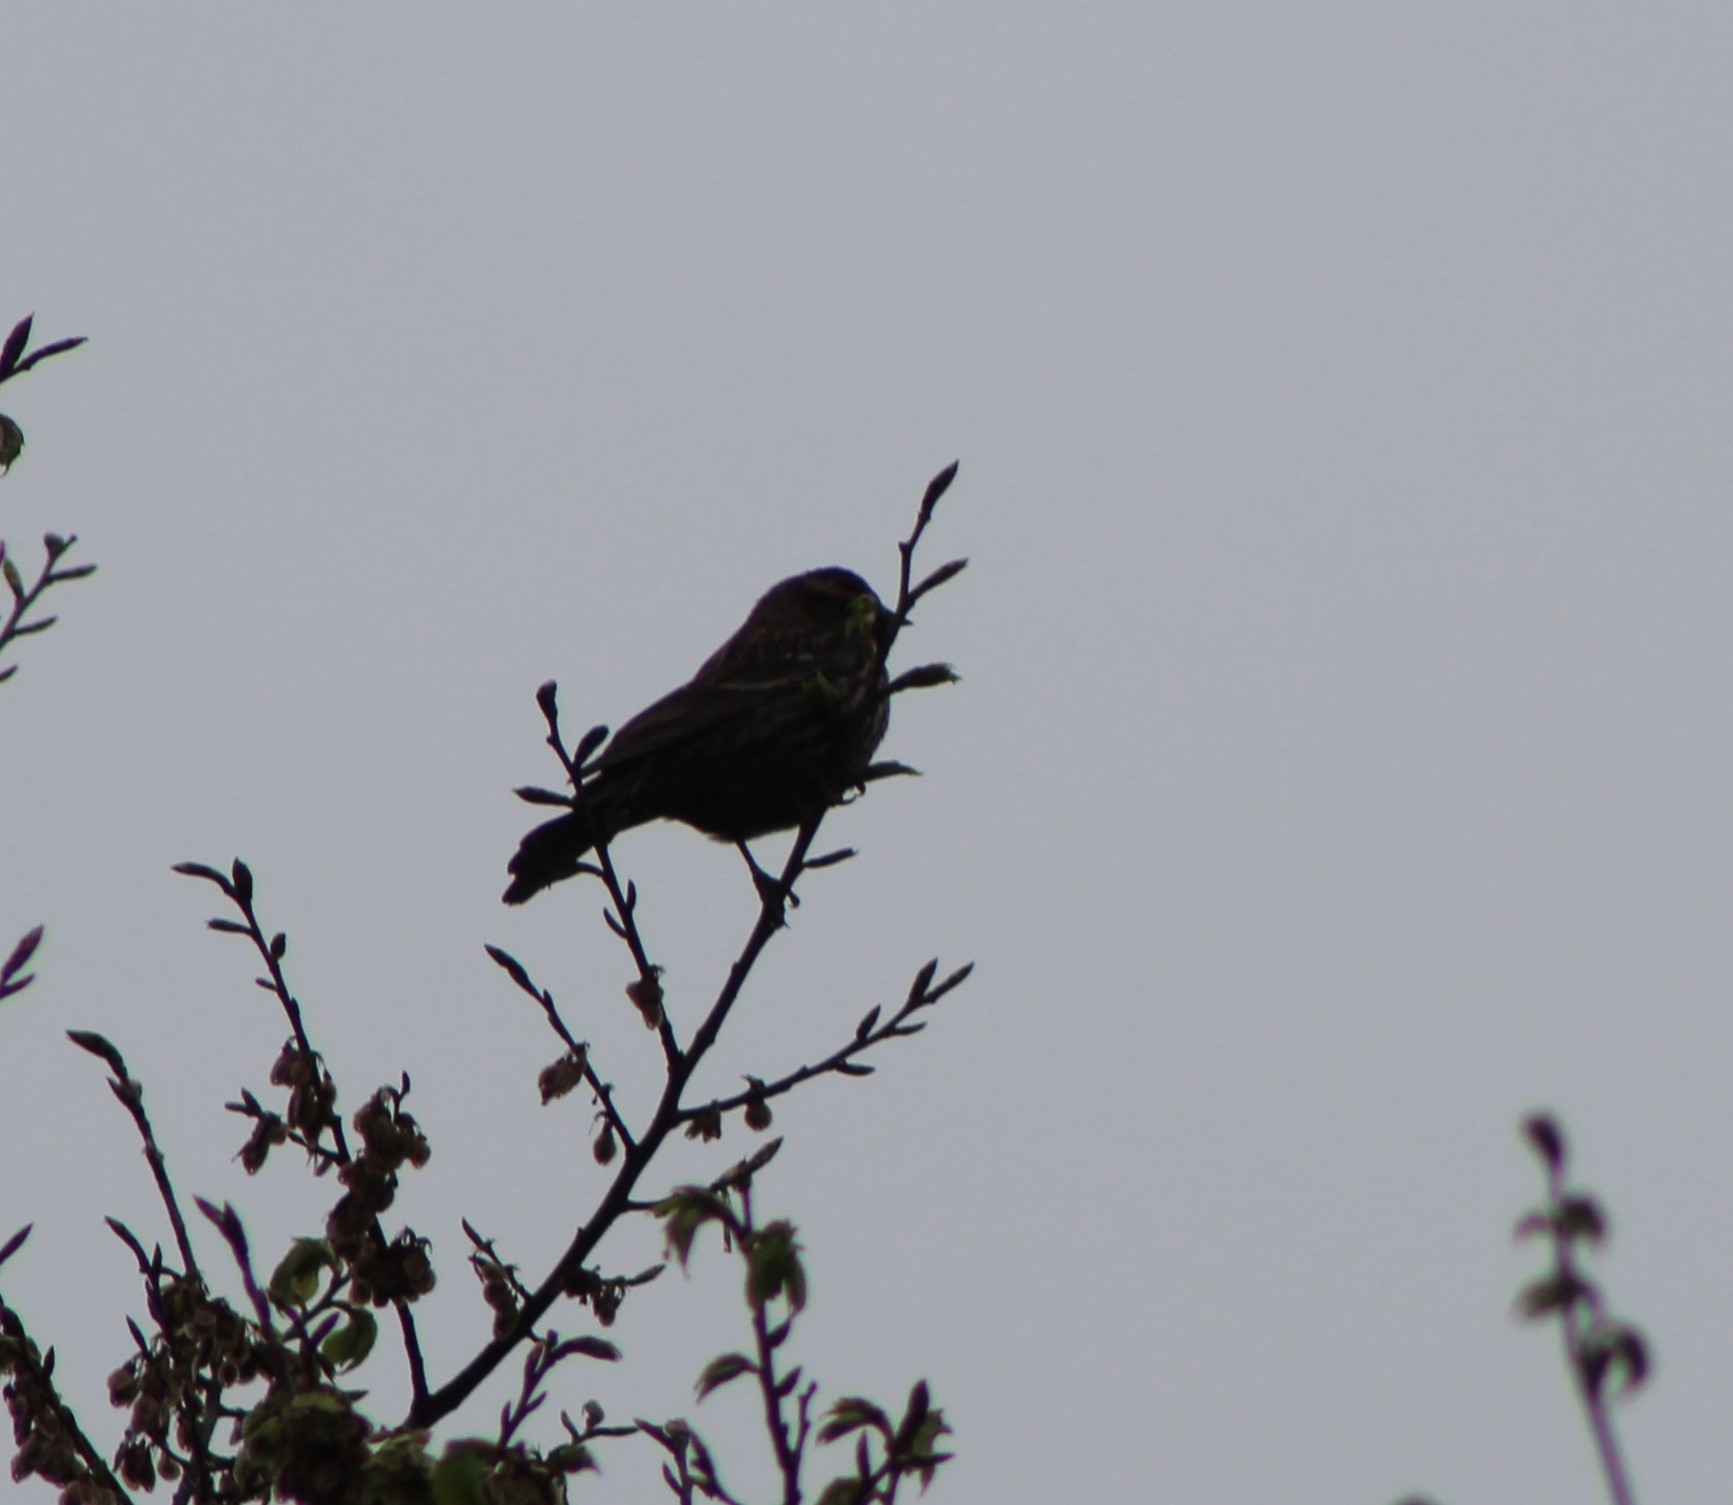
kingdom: Animalia
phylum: Chordata
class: Aves
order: Passeriformes
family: Icteridae
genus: Agelaius
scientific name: Agelaius phoeniceus
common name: Red-winged blackbird
